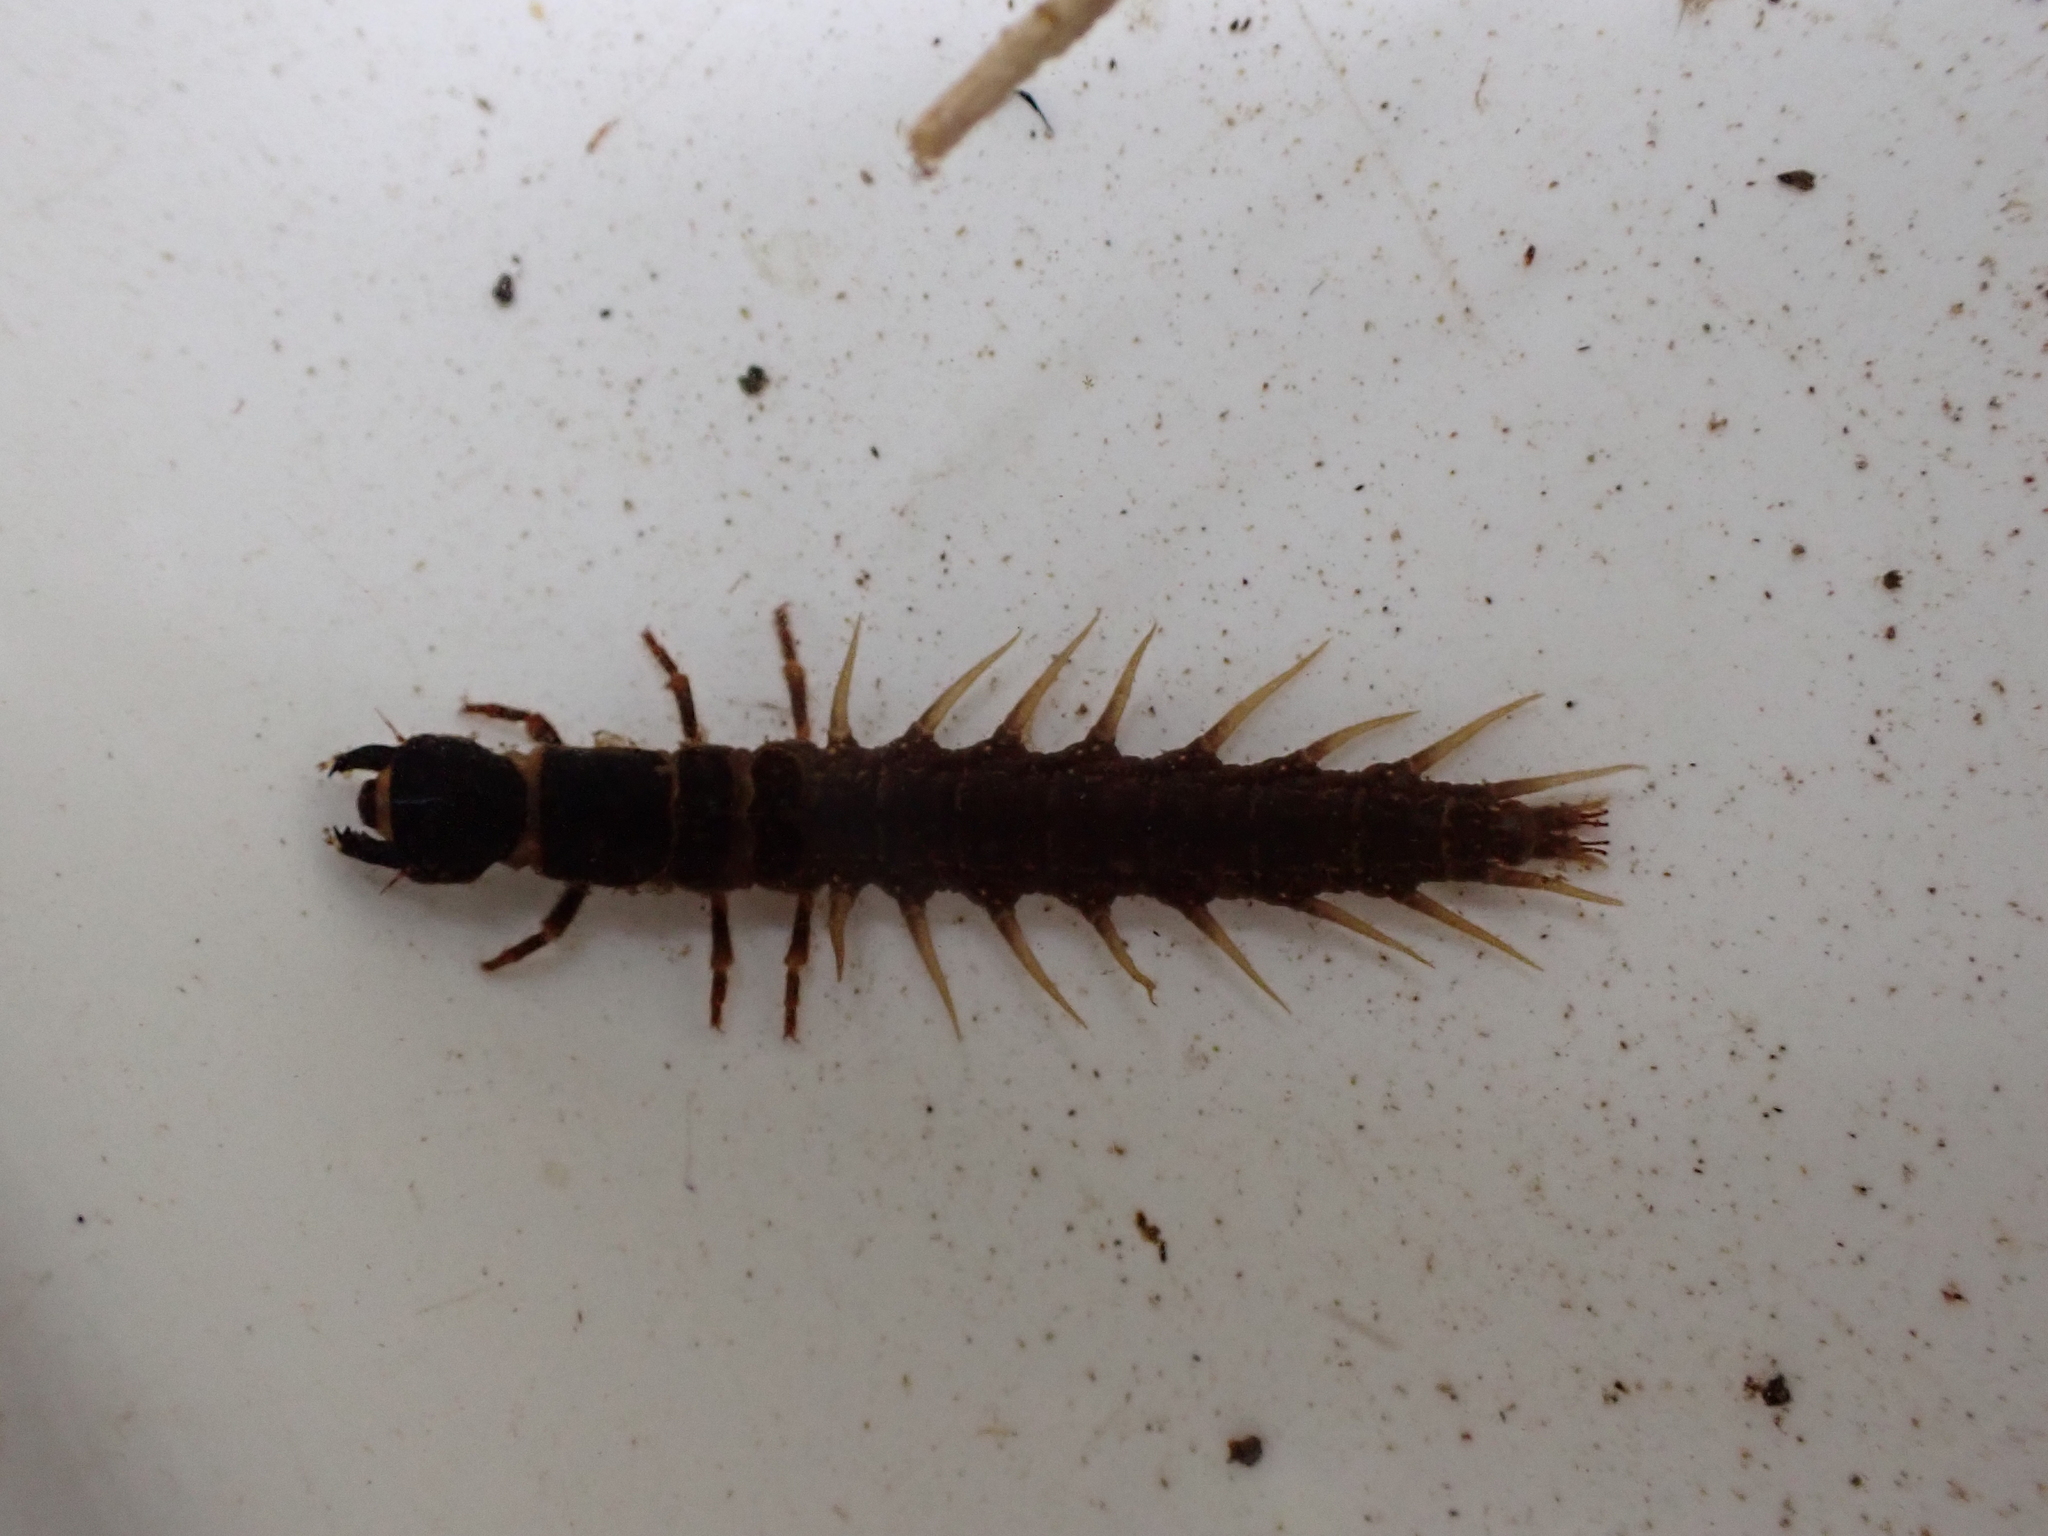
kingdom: Animalia
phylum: Arthropoda
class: Insecta
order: Megaloptera
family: Corydalidae
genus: Archichauliodes
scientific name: Archichauliodes diversus
